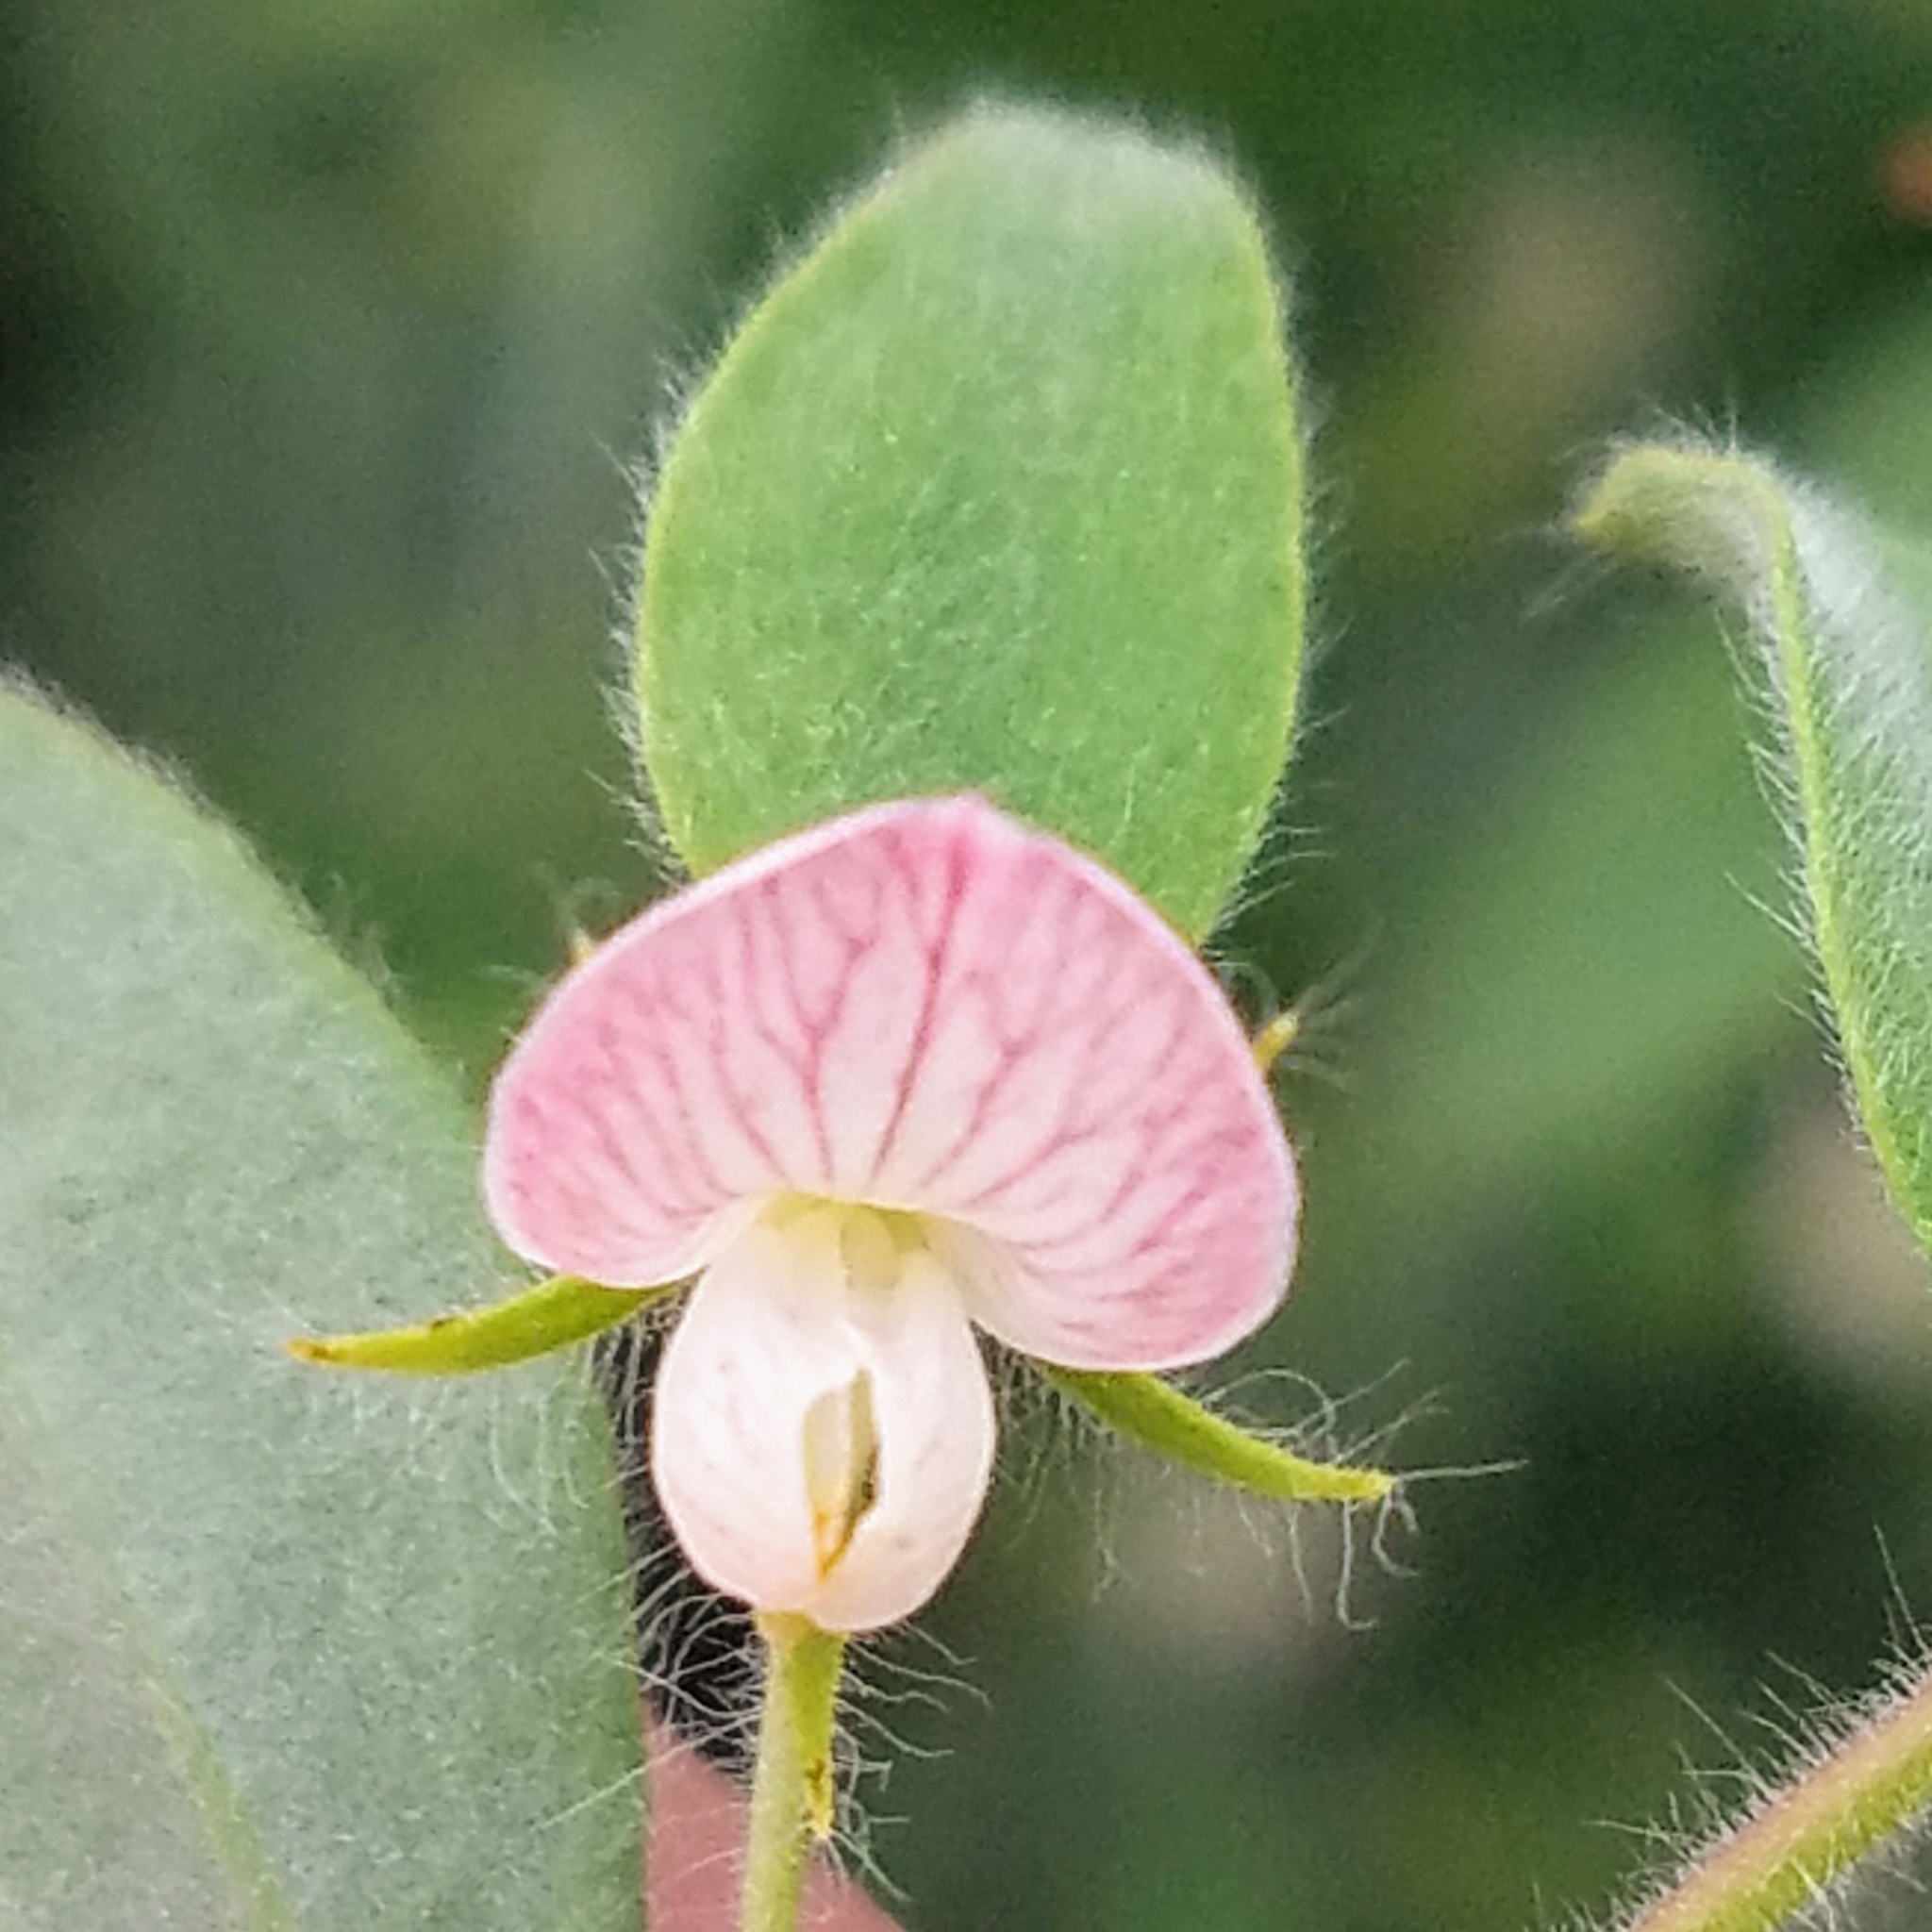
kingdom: Plantae
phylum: Tracheophyta
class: Magnoliopsida
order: Fabales
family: Fabaceae
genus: Acmispon
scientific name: Acmispon americanus
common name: American bird's-foot trefoil
